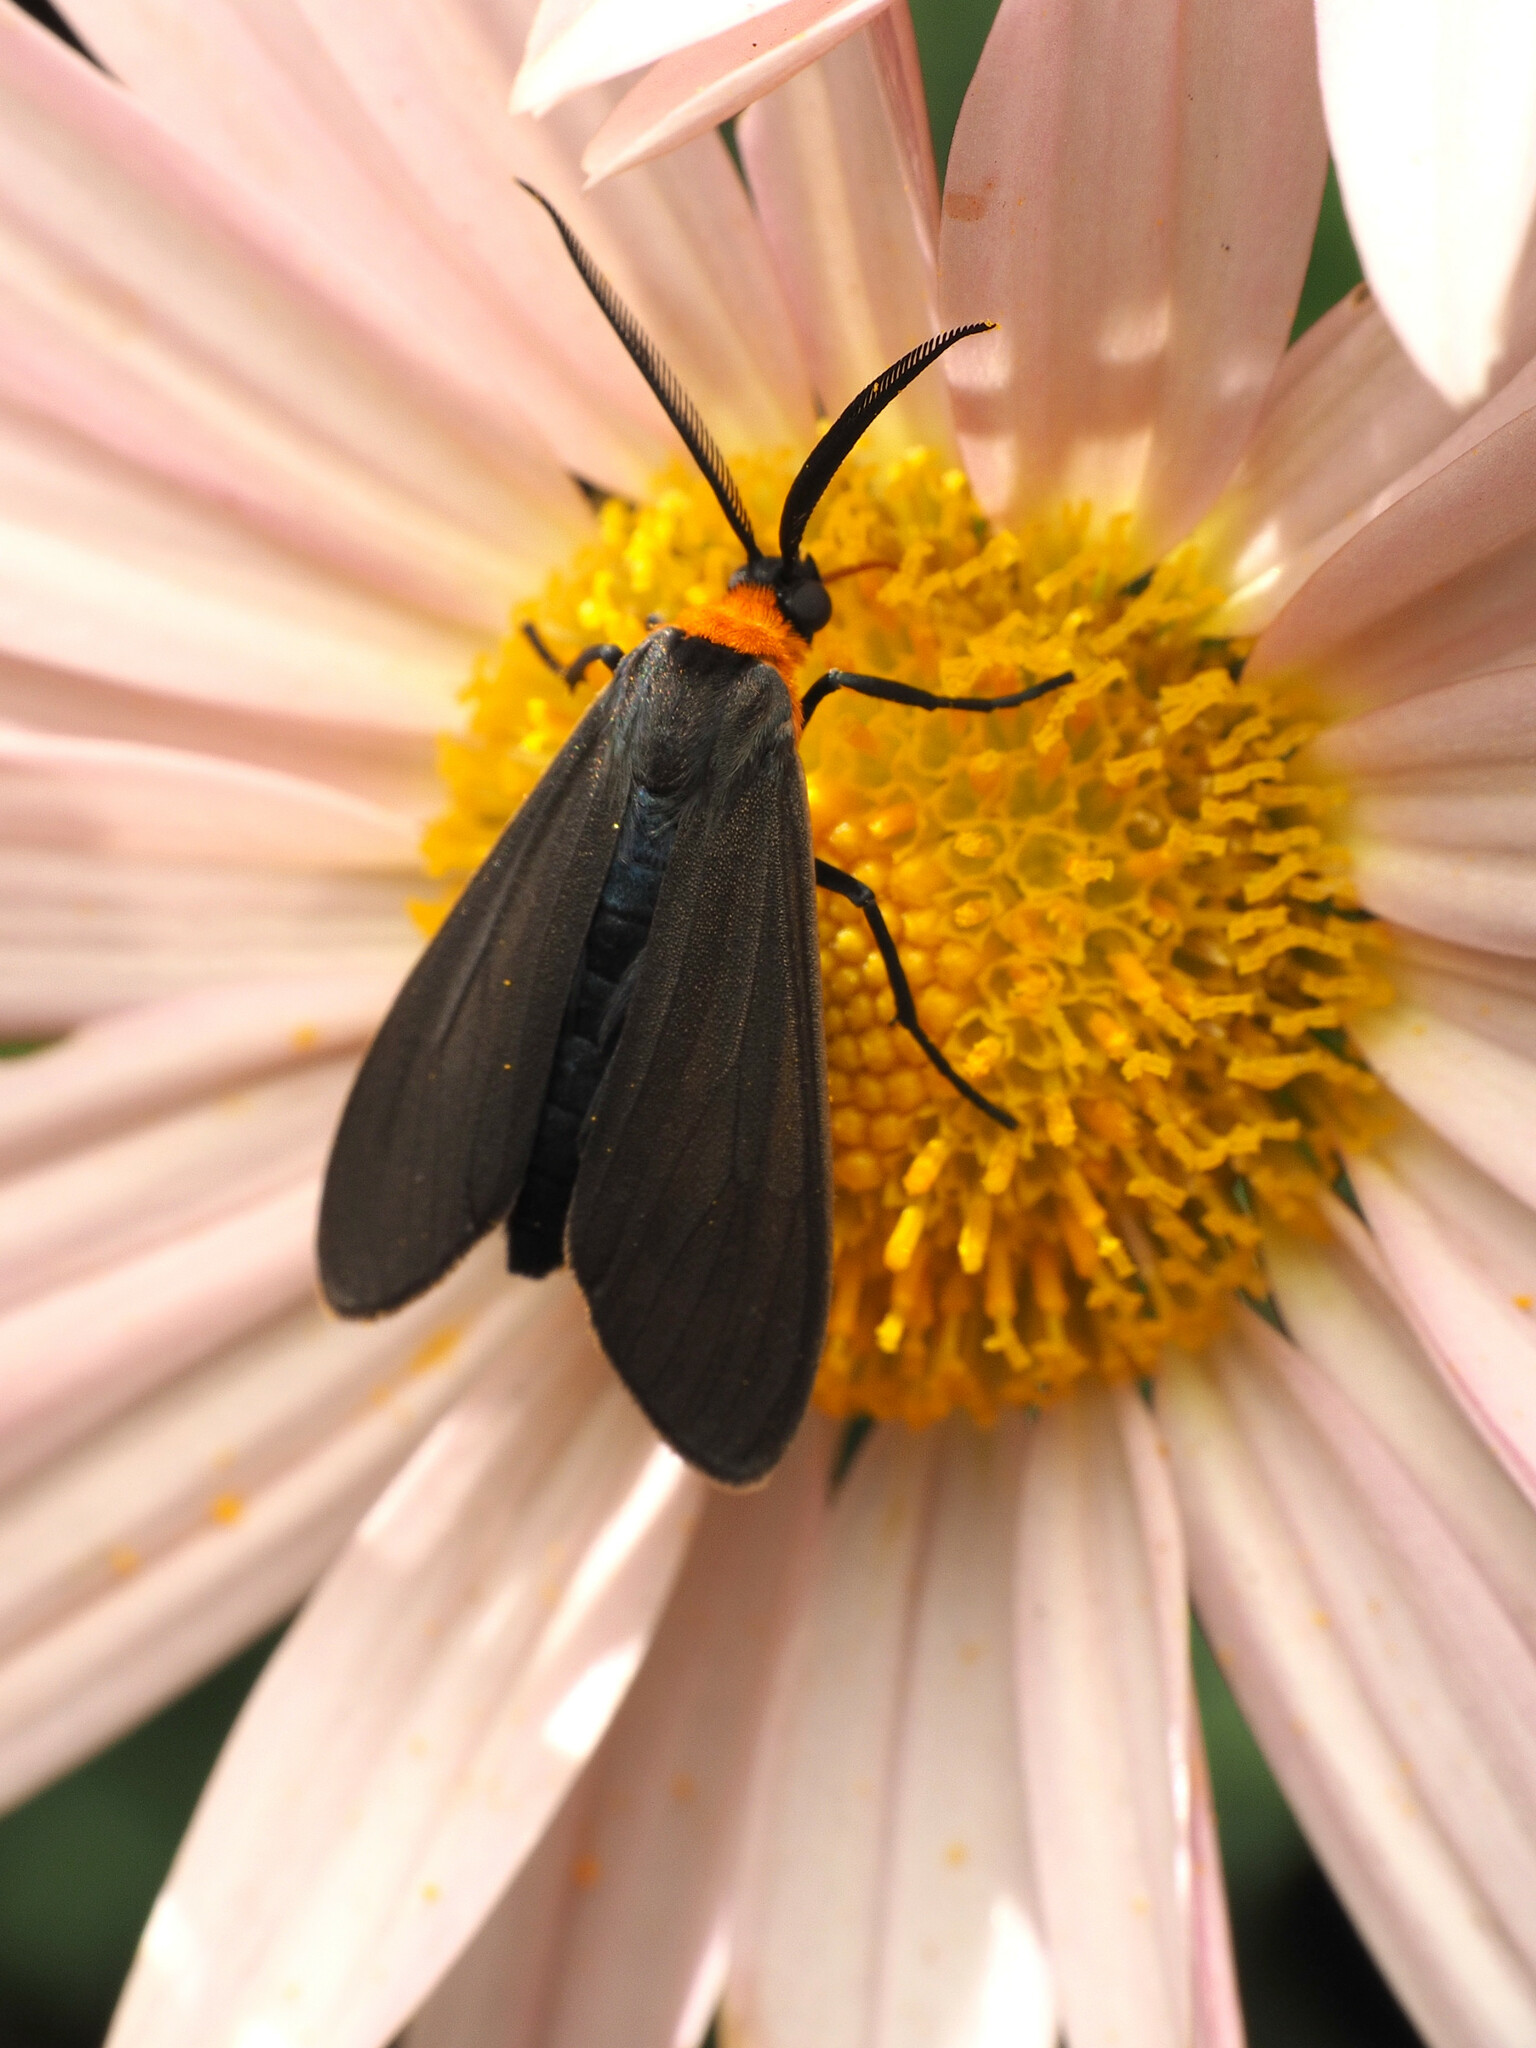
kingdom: Animalia
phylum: Arthropoda
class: Insecta
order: Lepidoptera
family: Erebidae
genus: Cisseps
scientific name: Cisseps fulvicollis
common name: Yellow-collared scape moth
